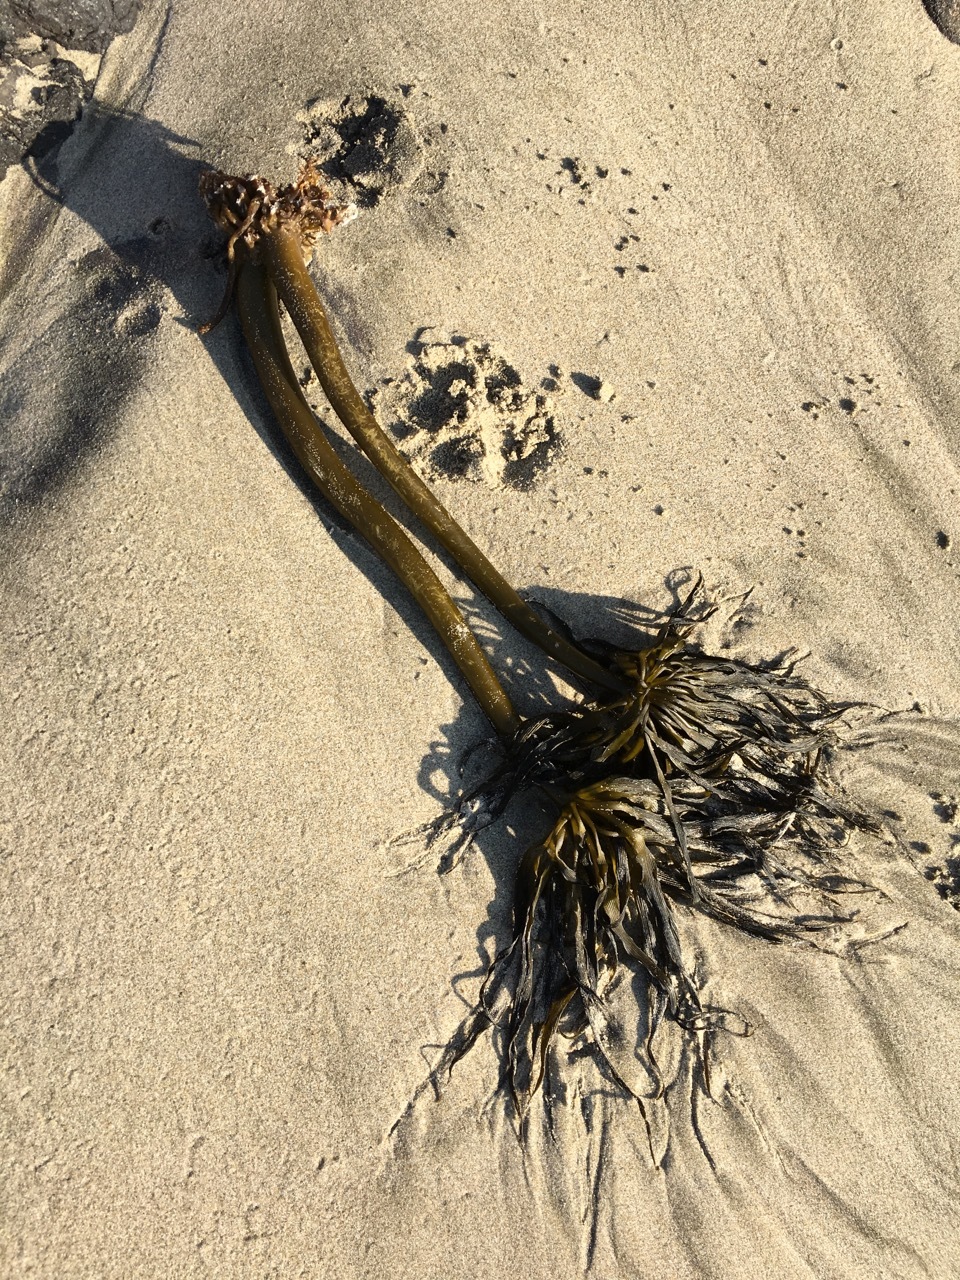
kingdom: Chromista
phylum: Ochrophyta
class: Phaeophyceae
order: Laminariales
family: Laminariaceae
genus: Postelsia
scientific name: Postelsia palmiformis
